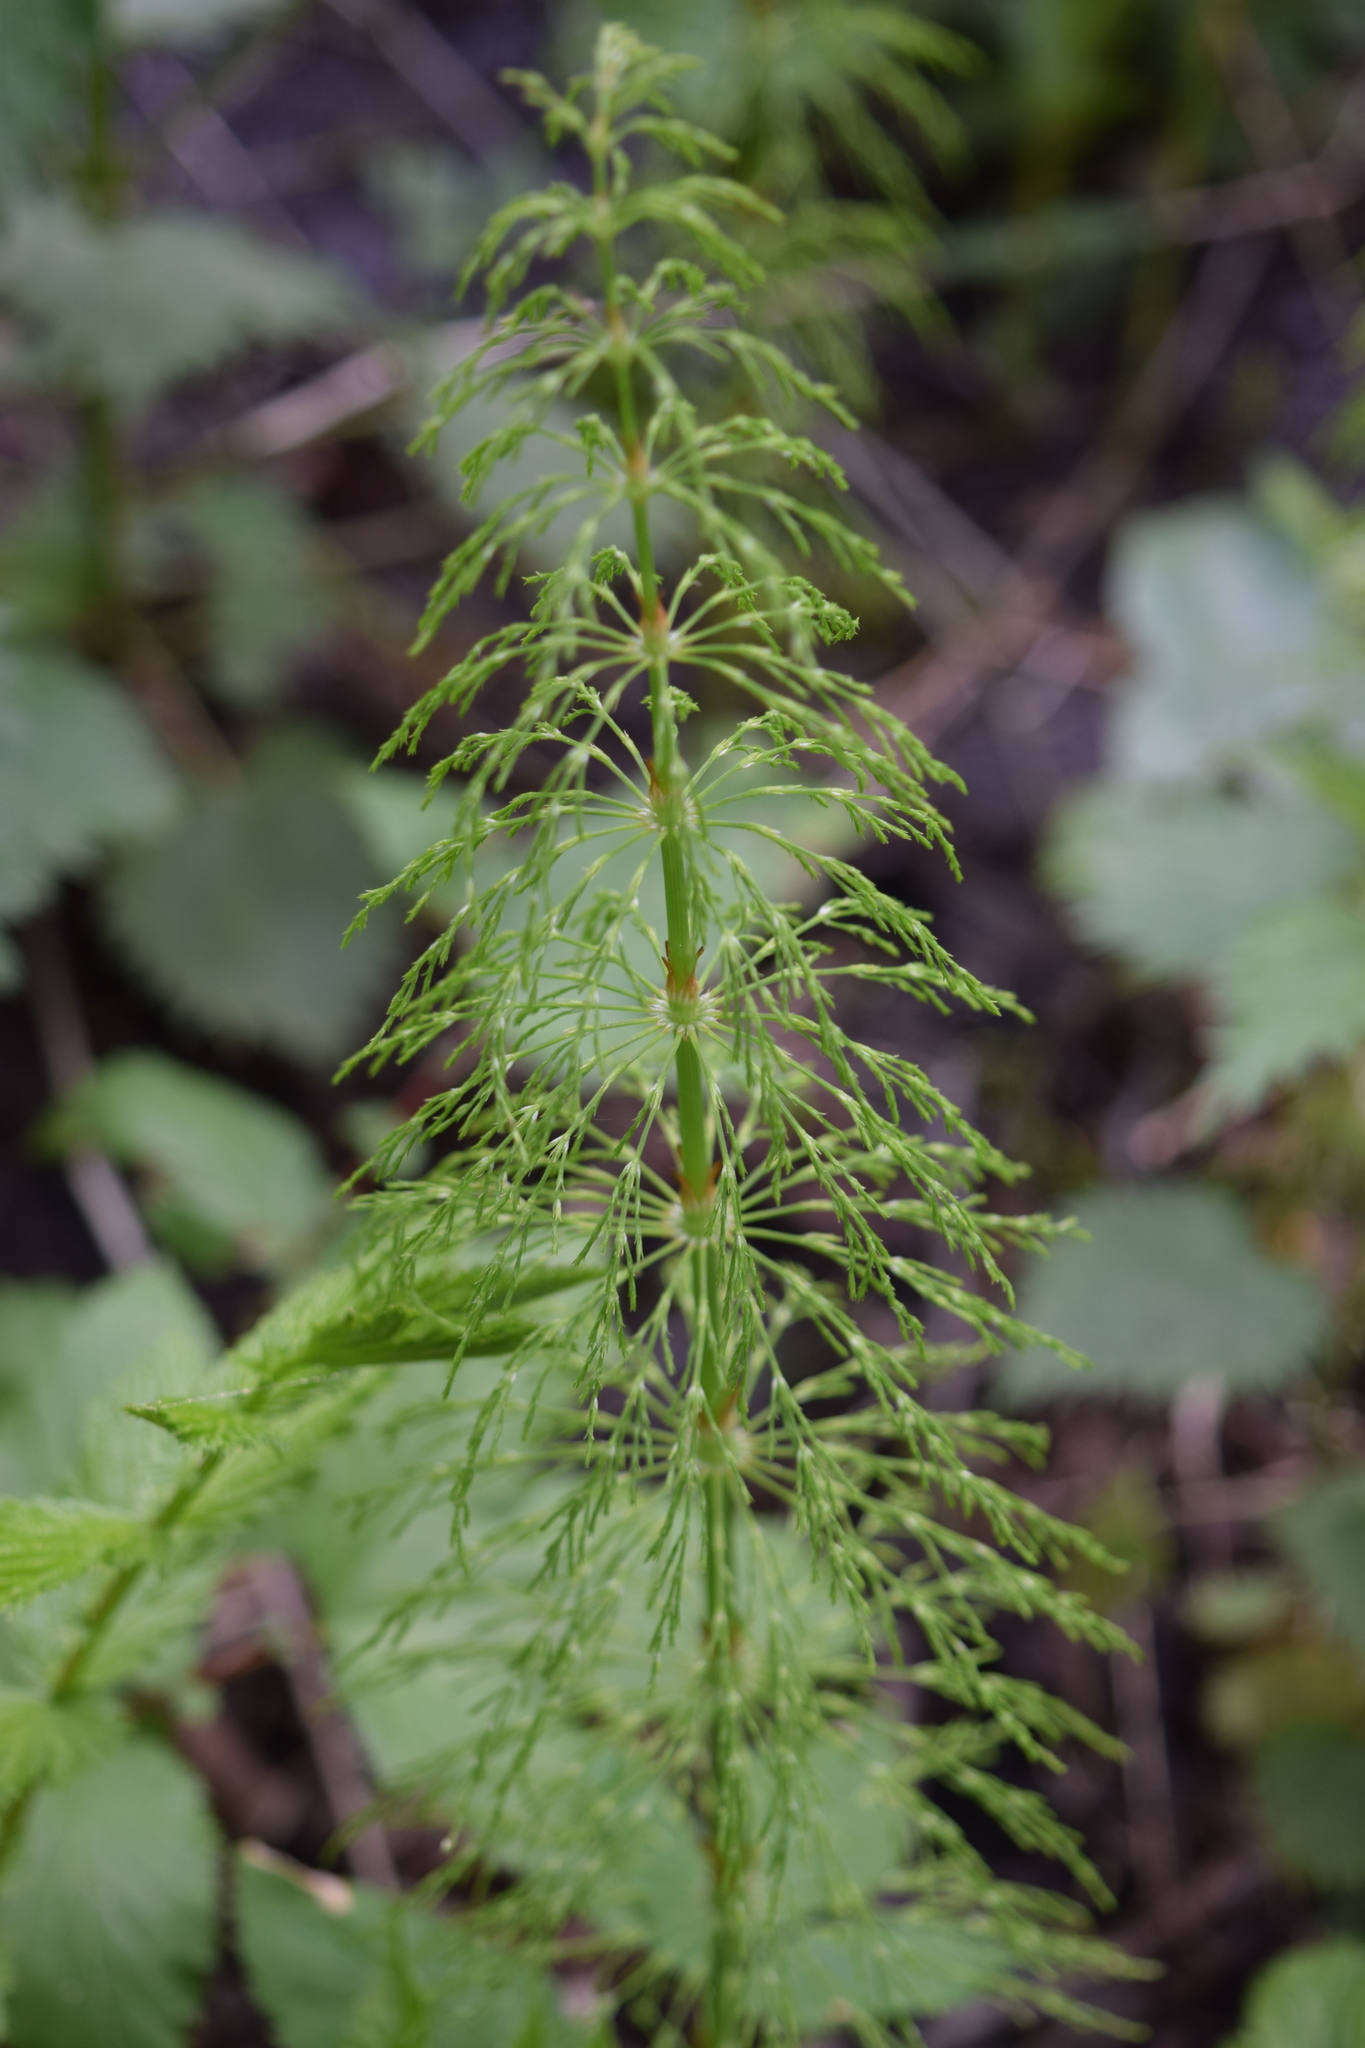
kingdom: Plantae
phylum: Tracheophyta
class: Polypodiopsida
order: Equisetales
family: Equisetaceae
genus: Equisetum
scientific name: Equisetum sylvaticum
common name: Wood horsetail
